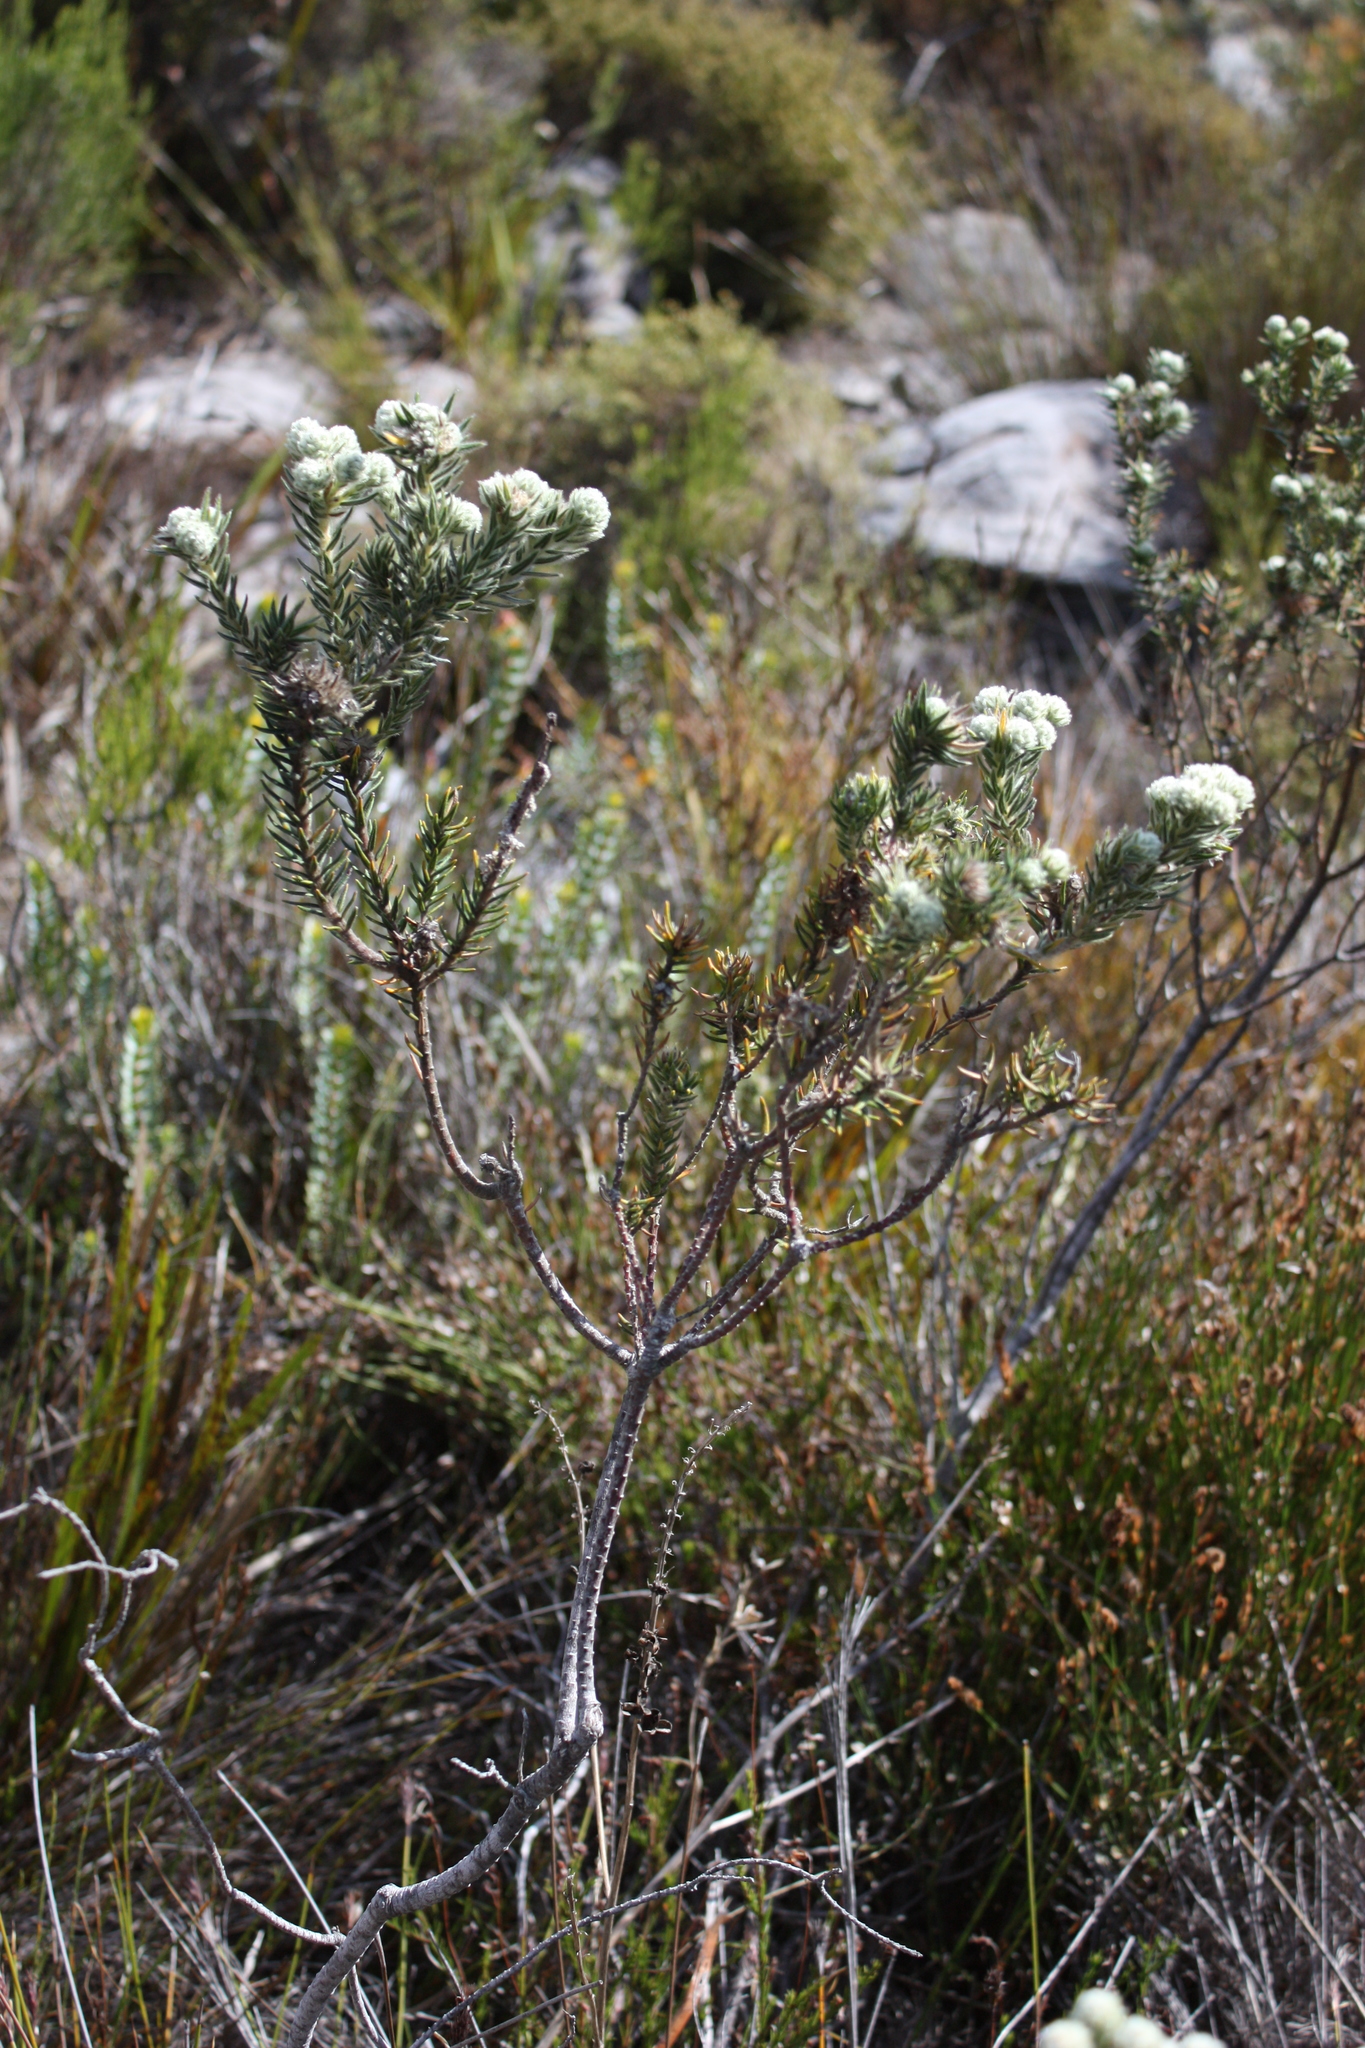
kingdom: Plantae
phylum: Tracheophyta
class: Magnoliopsida
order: Rosales
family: Rhamnaceae
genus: Phylica
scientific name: Phylica strigosa
